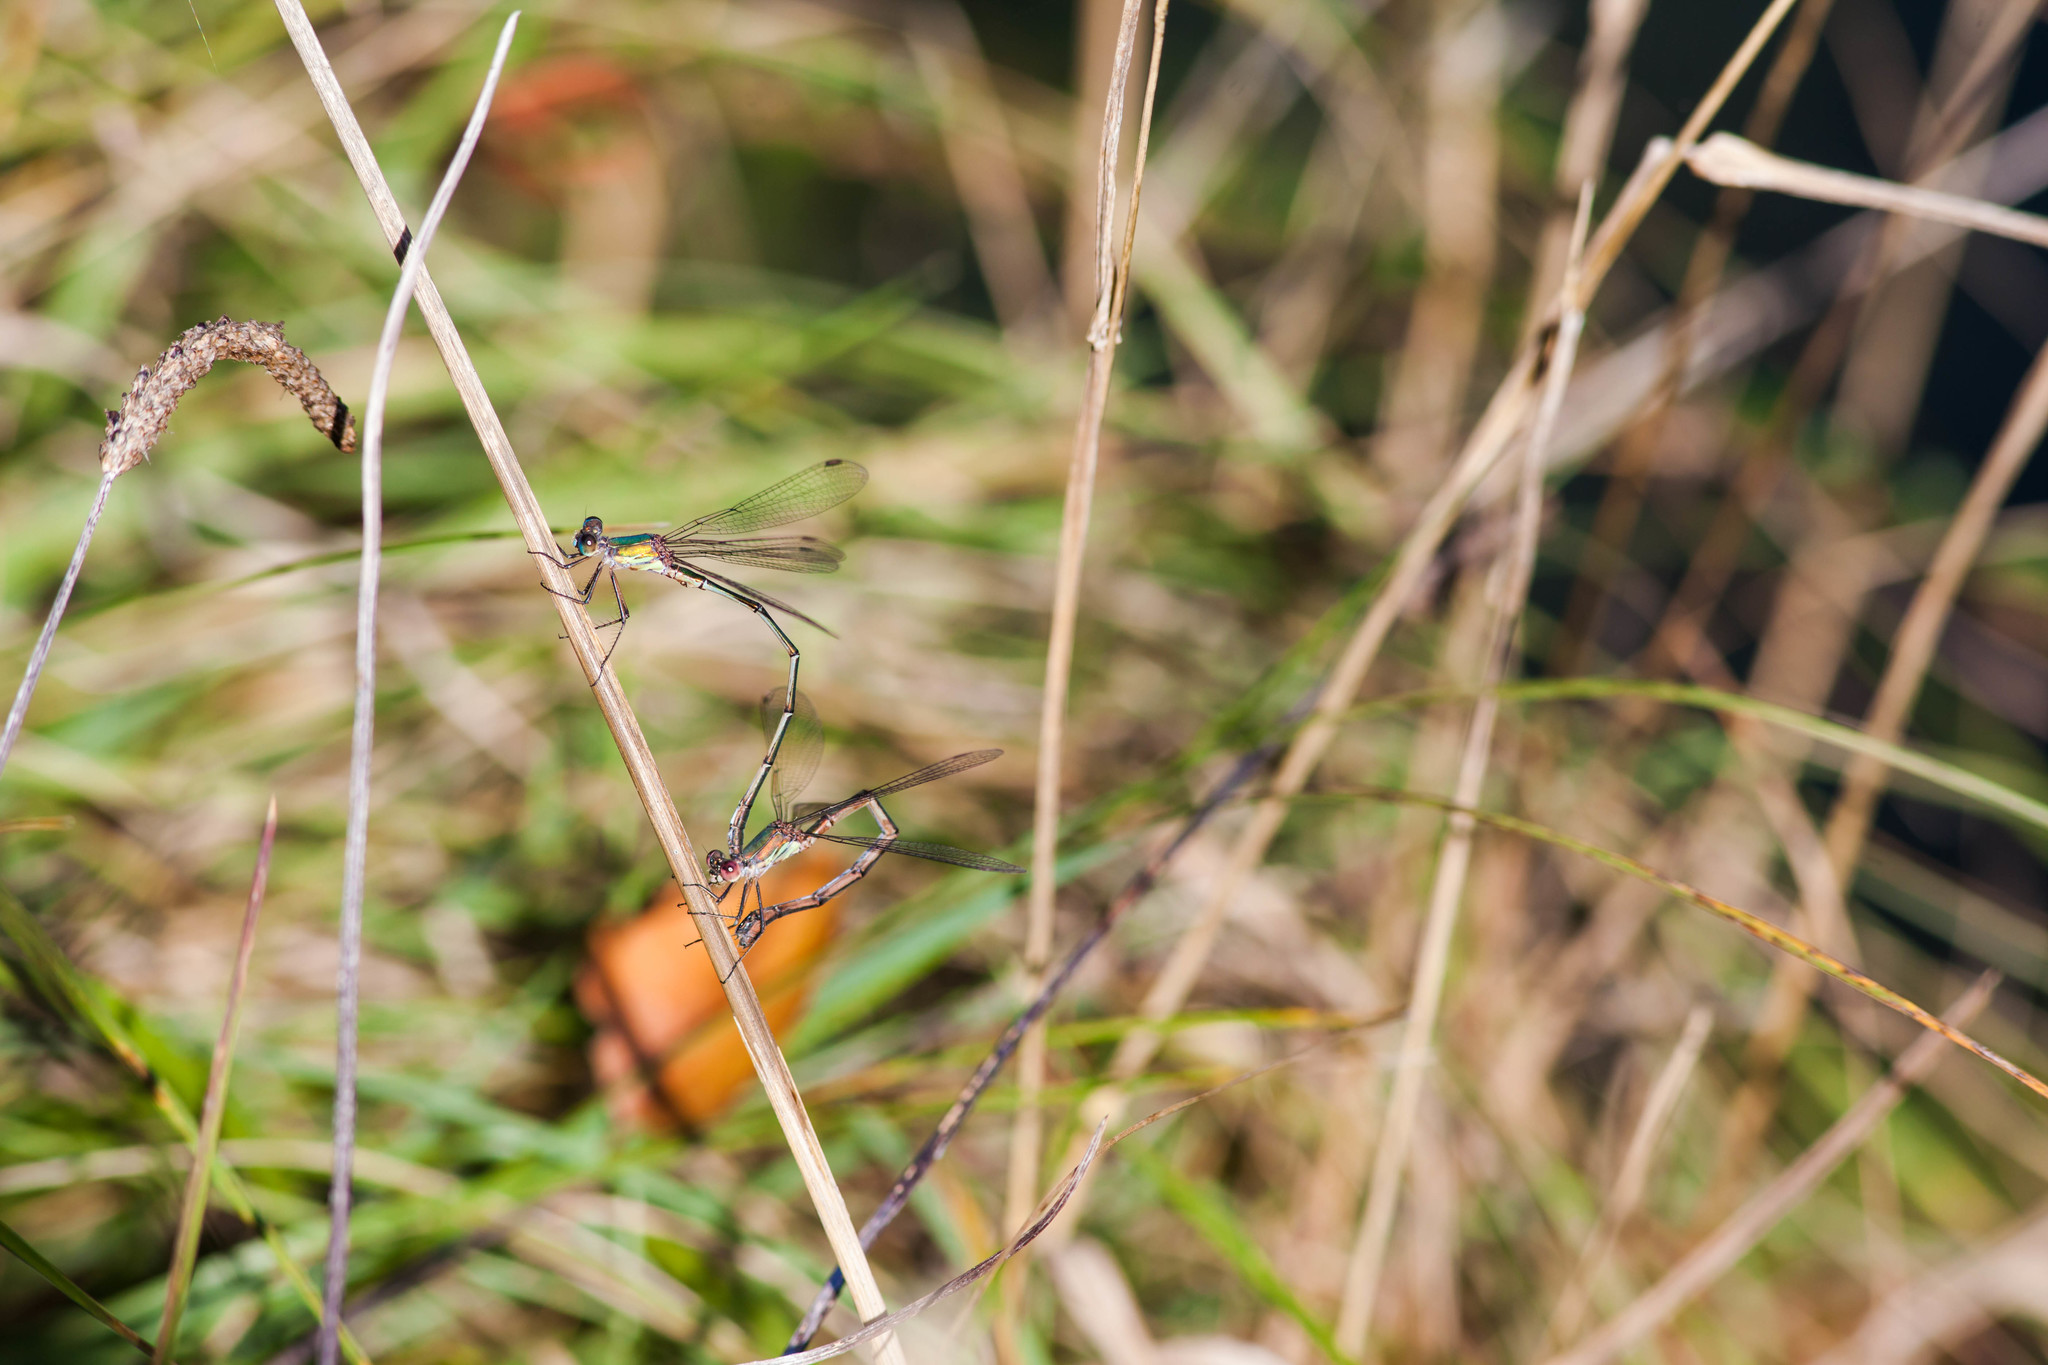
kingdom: Animalia
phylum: Arthropoda
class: Insecta
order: Odonata
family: Lestidae
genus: Chalcolestes
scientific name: Chalcolestes viridis
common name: Green emerald damselfly
